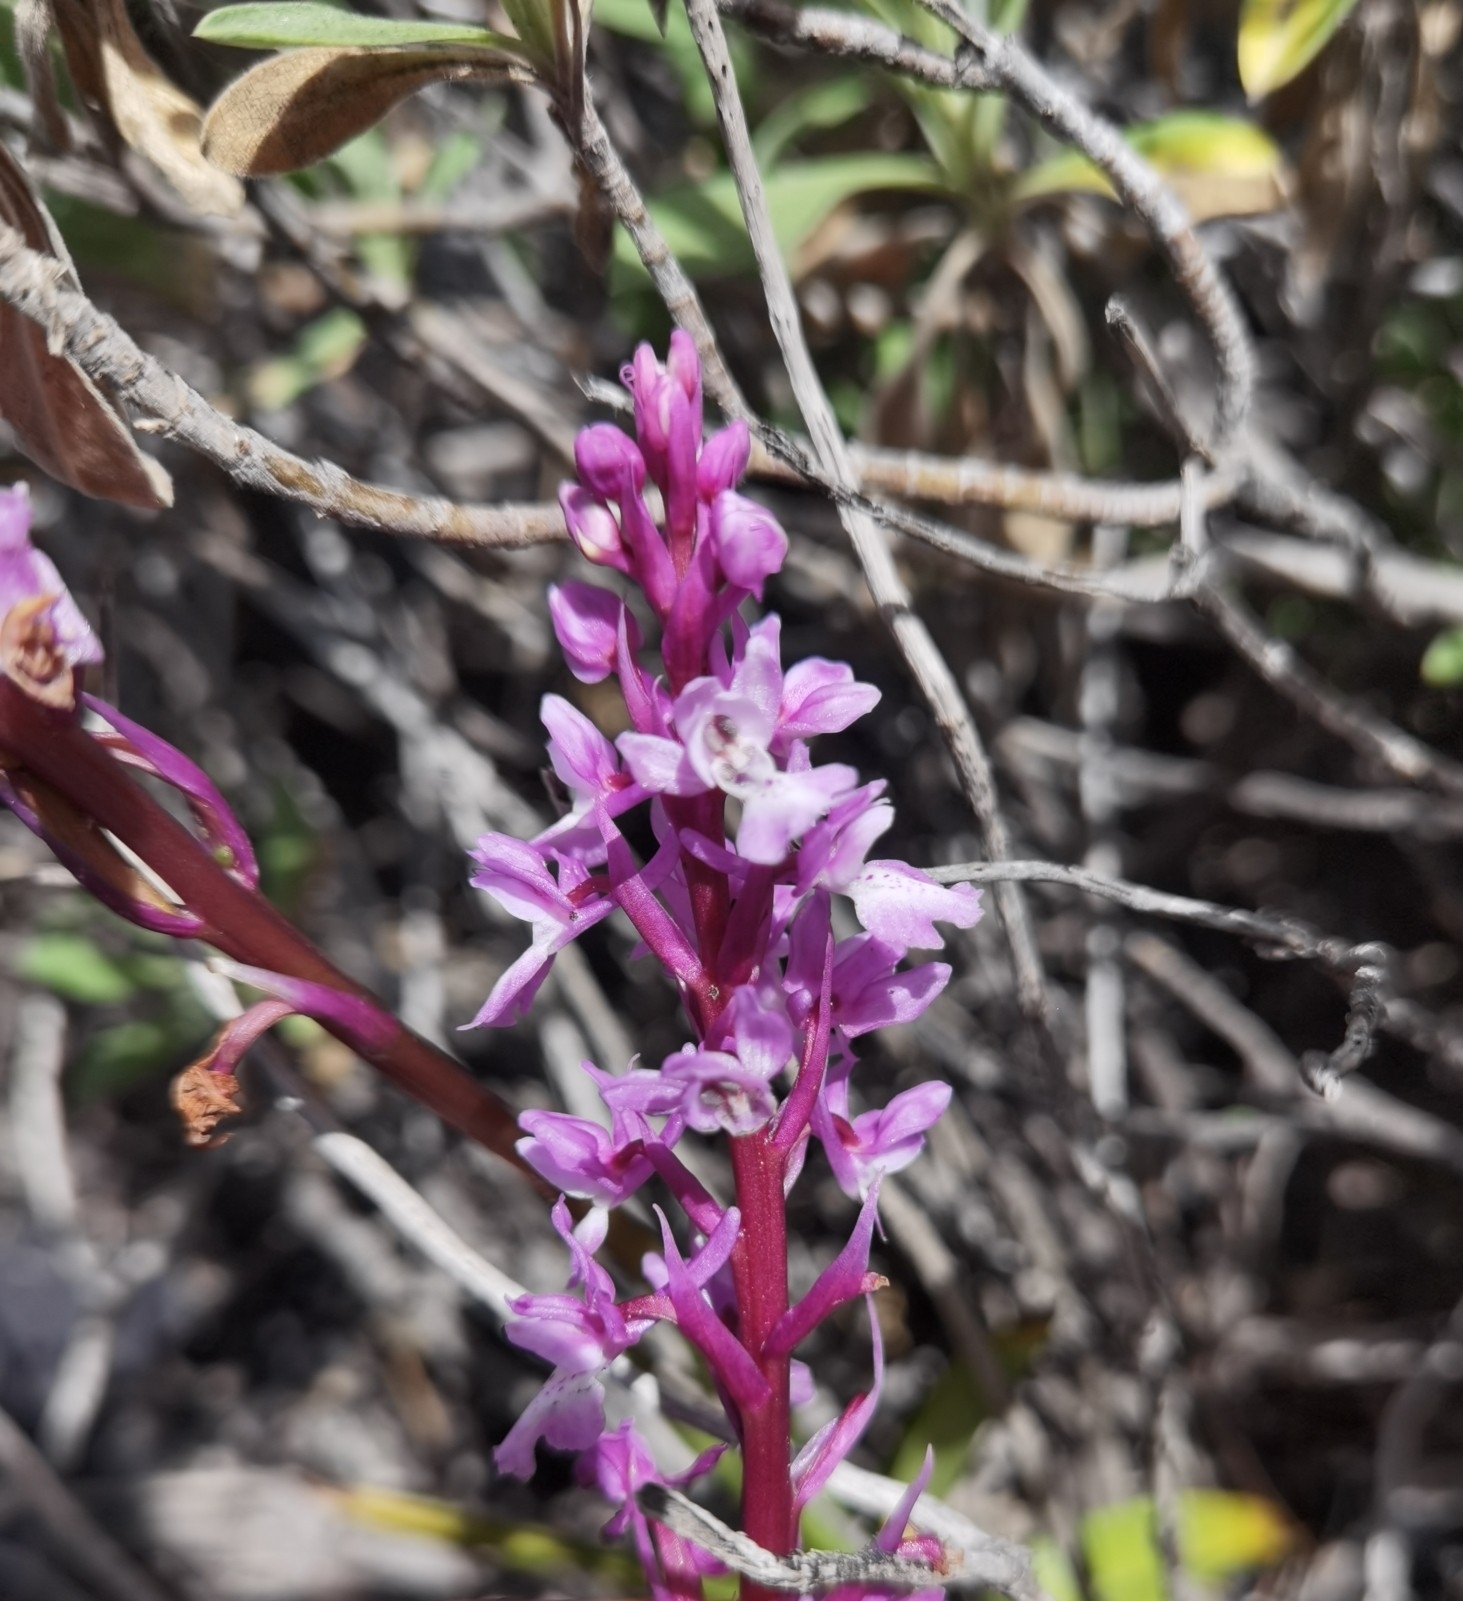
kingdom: Plantae
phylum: Tracheophyta
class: Liliopsida
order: Asparagales
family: Orchidaceae
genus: Orchis
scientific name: Orchis mascula
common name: Early-purple orchid
